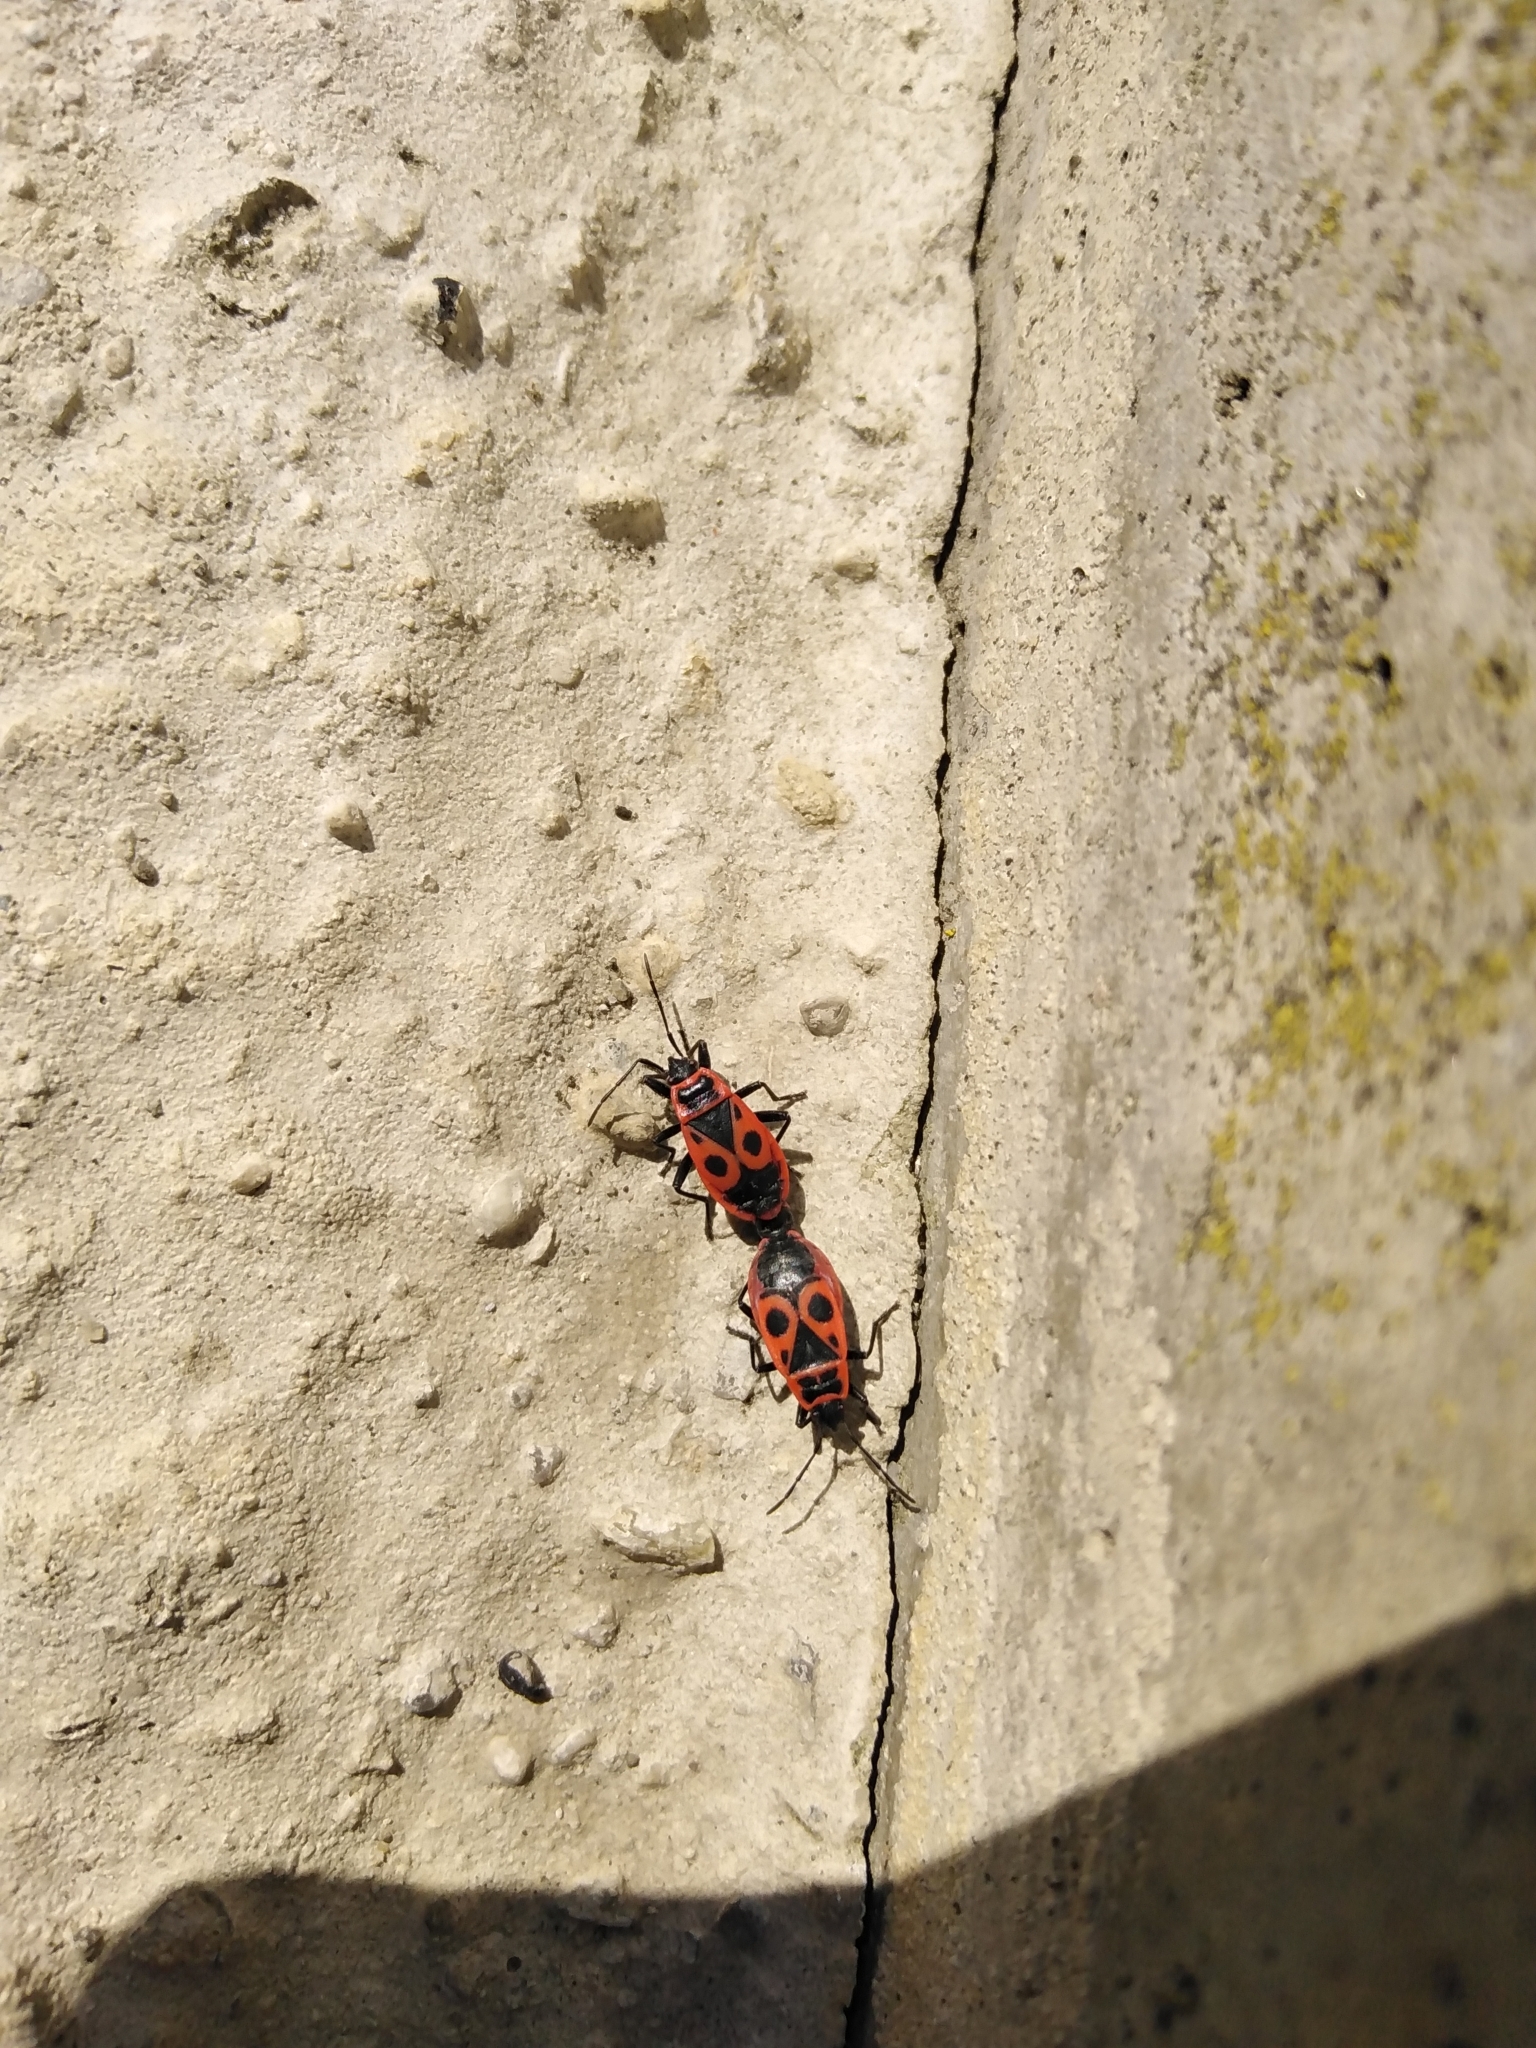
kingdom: Animalia
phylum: Arthropoda
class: Insecta
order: Hemiptera
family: Pyrrhocoridae
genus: Pyrrhocoris
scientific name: Pyrrhocoris apterus
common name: Firebug
